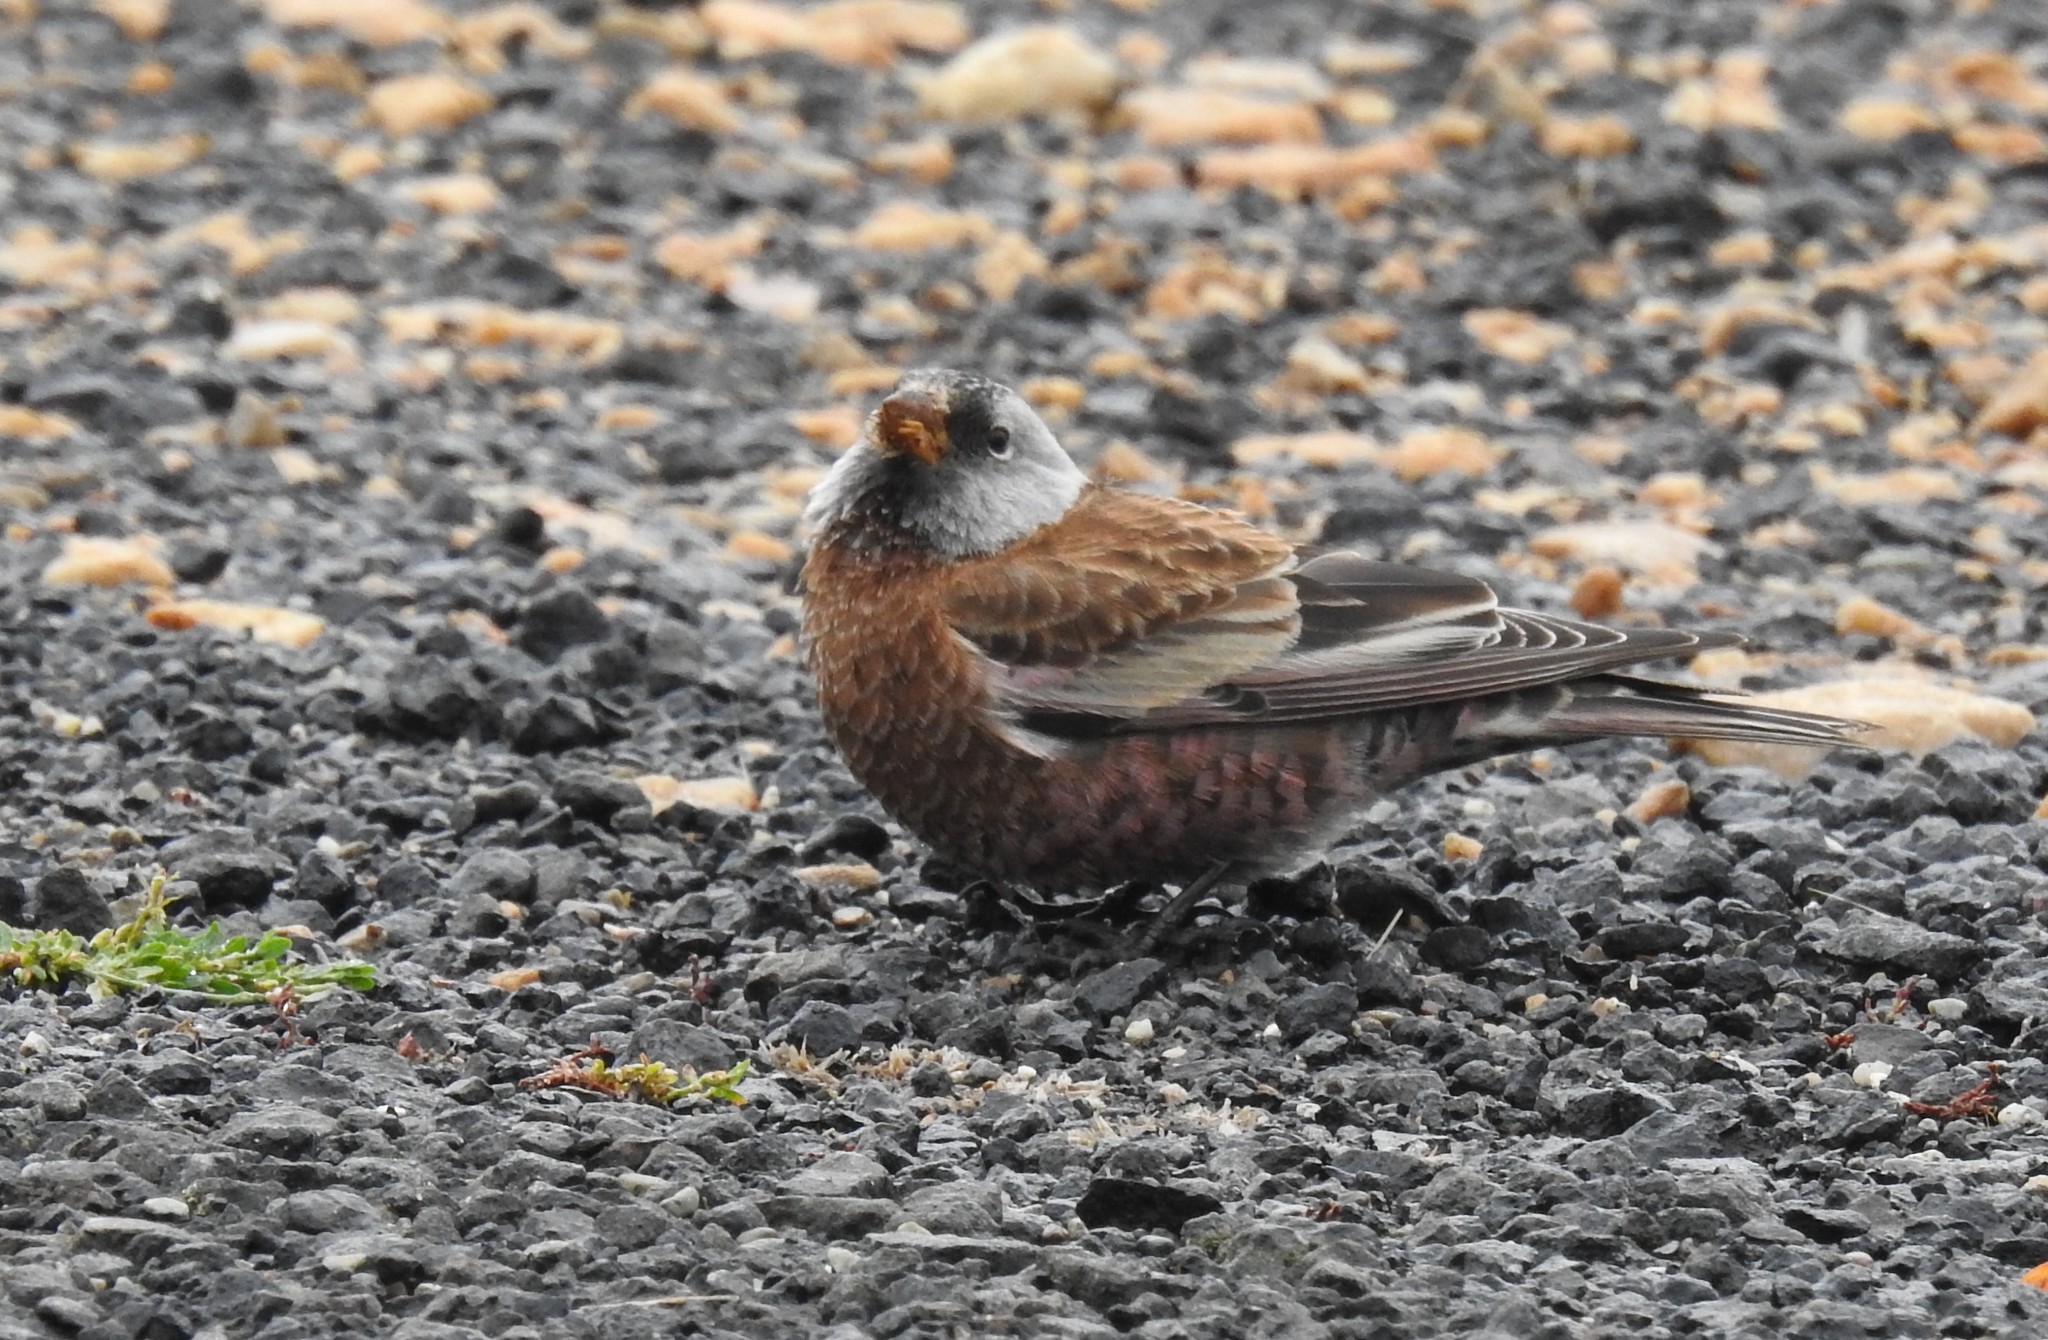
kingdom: Animalia
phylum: Chordata
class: Aves
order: Passeriformes
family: Fringillidae
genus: Leucosticte
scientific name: Leucosticte tephrocotis
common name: Gray-crowned rosy-finch
